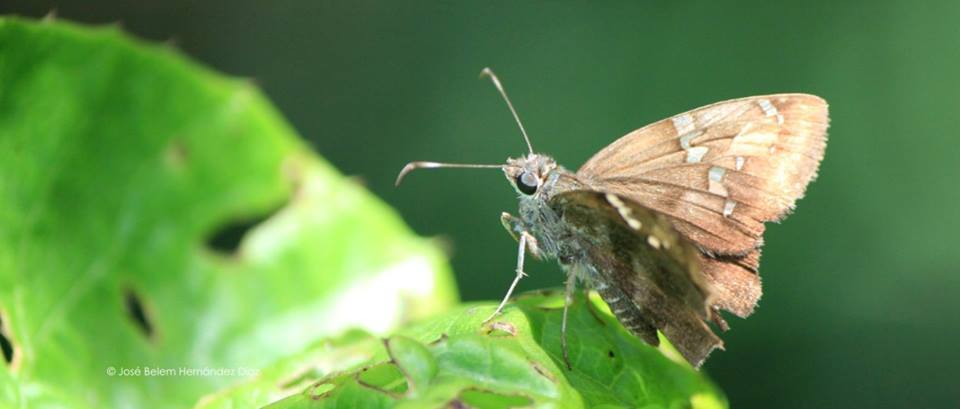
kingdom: Animalia
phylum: Arthropoda
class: Insecta
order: Lepidoptera
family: Hesperiidae
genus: Autochton
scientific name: Autochton potrillo
